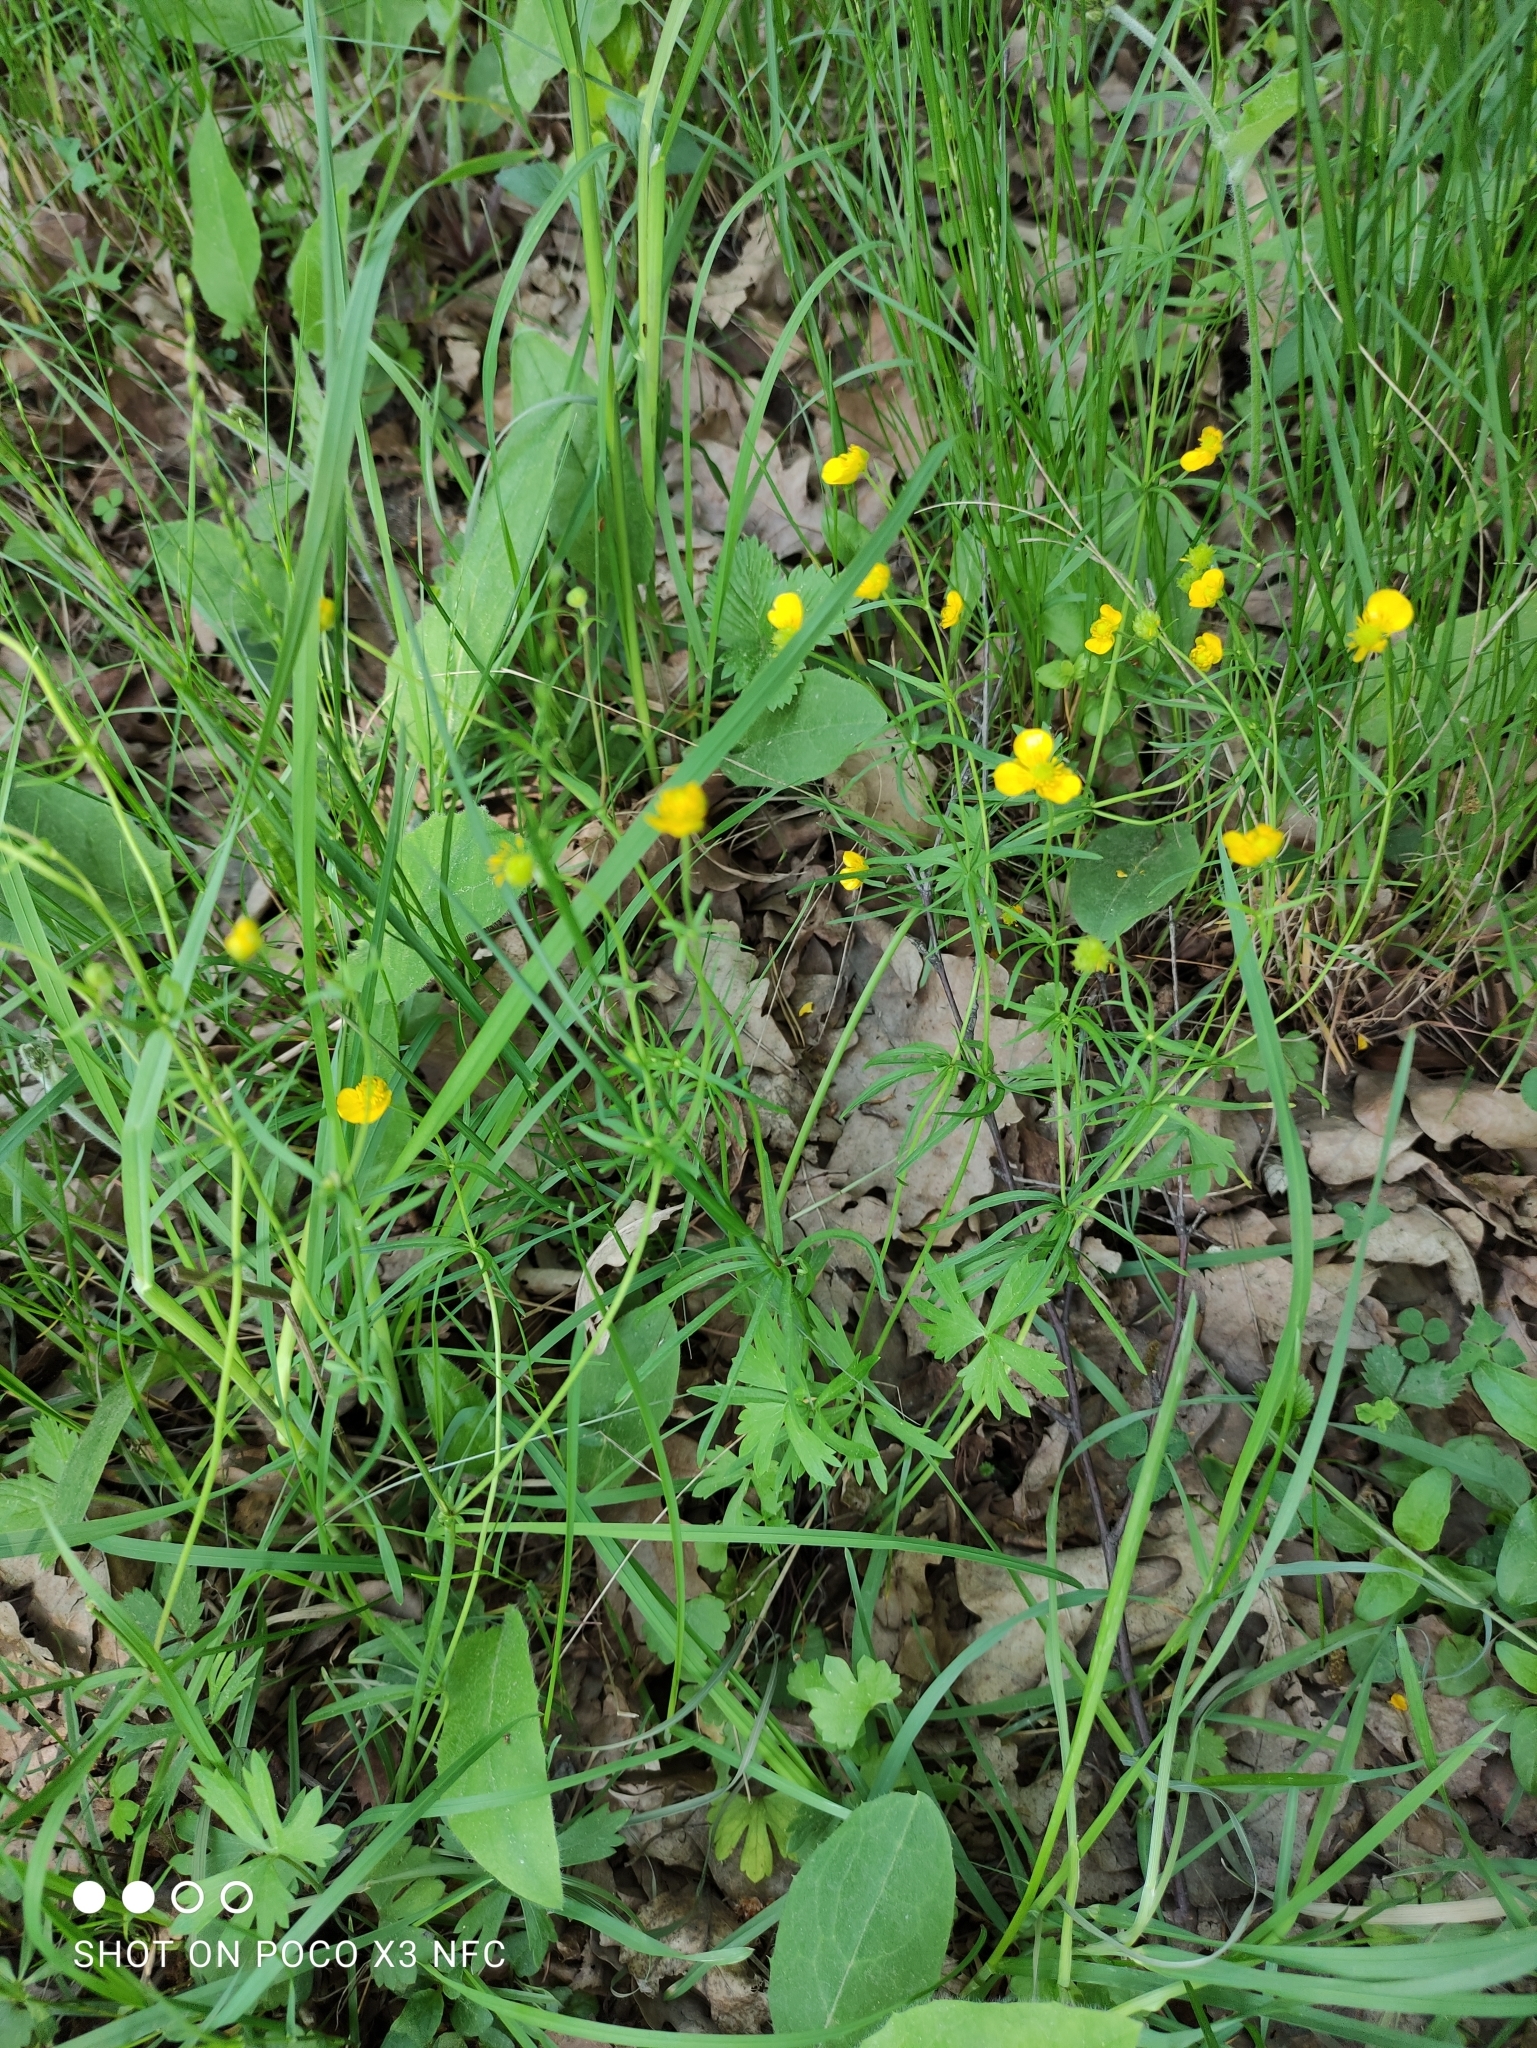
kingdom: Plantae
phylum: Tracheophyta
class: Magnoliopsida
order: Ranunculales
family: Ranunculaceae
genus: Ranunculus
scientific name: Ranunculus auricomus
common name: Goldilocks buttercup
